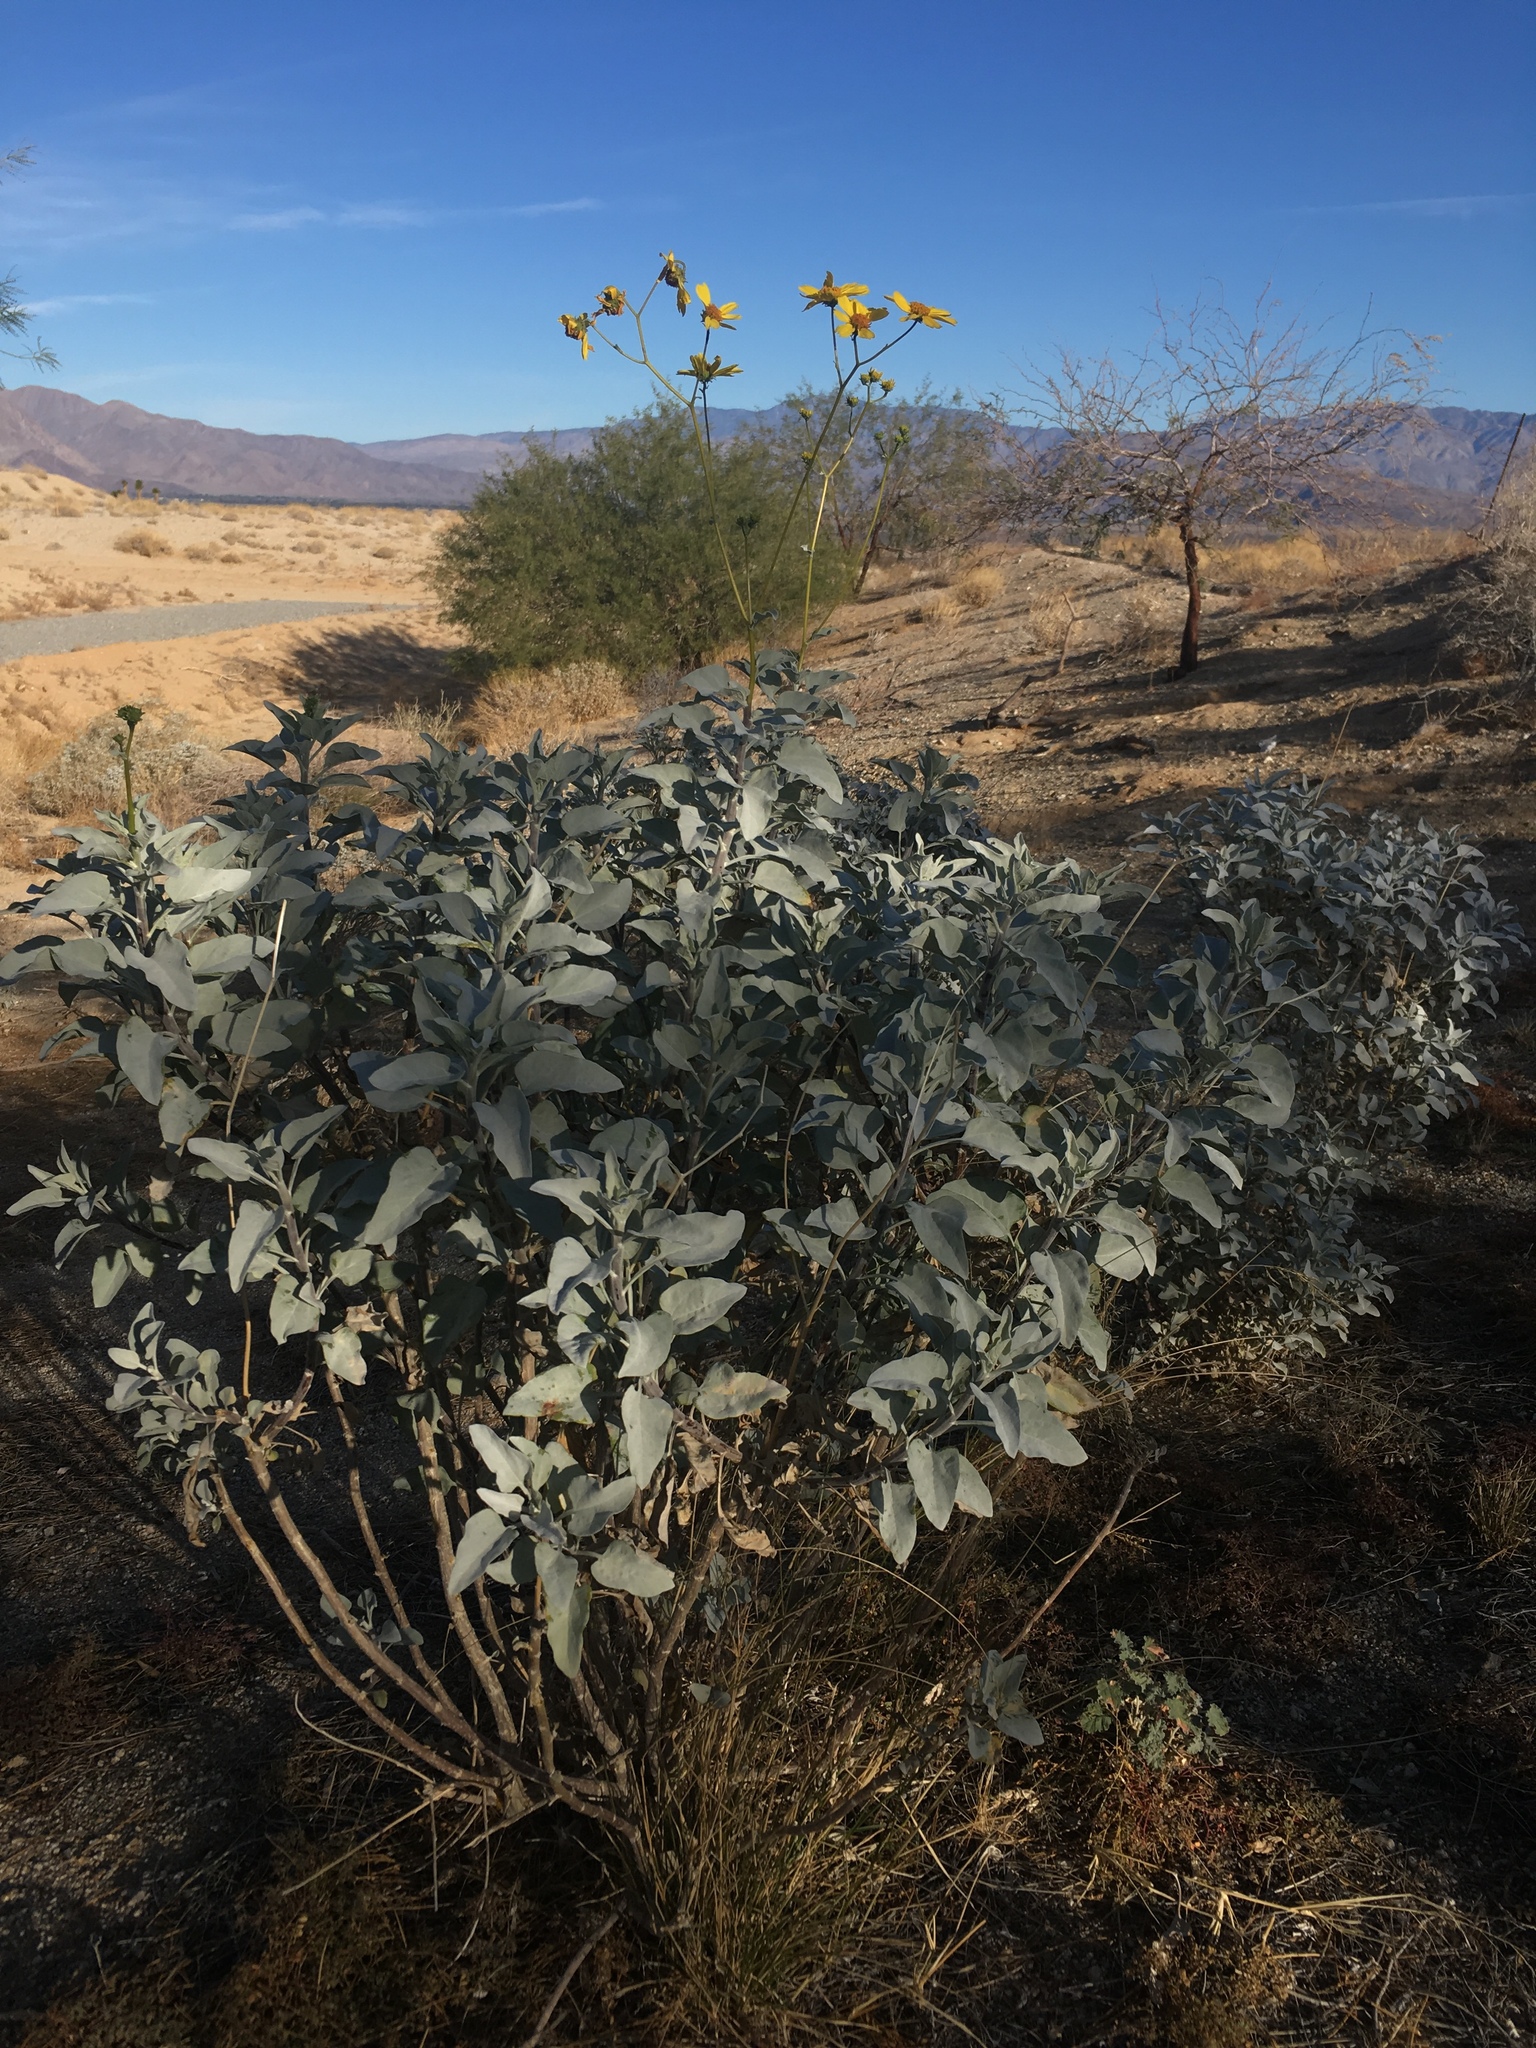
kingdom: Plantae
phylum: Tracheophyta
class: Magnoliopsida
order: Asterales
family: Asteraceae
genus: Encelia
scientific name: Encelia farinosa
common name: Brittlebush
